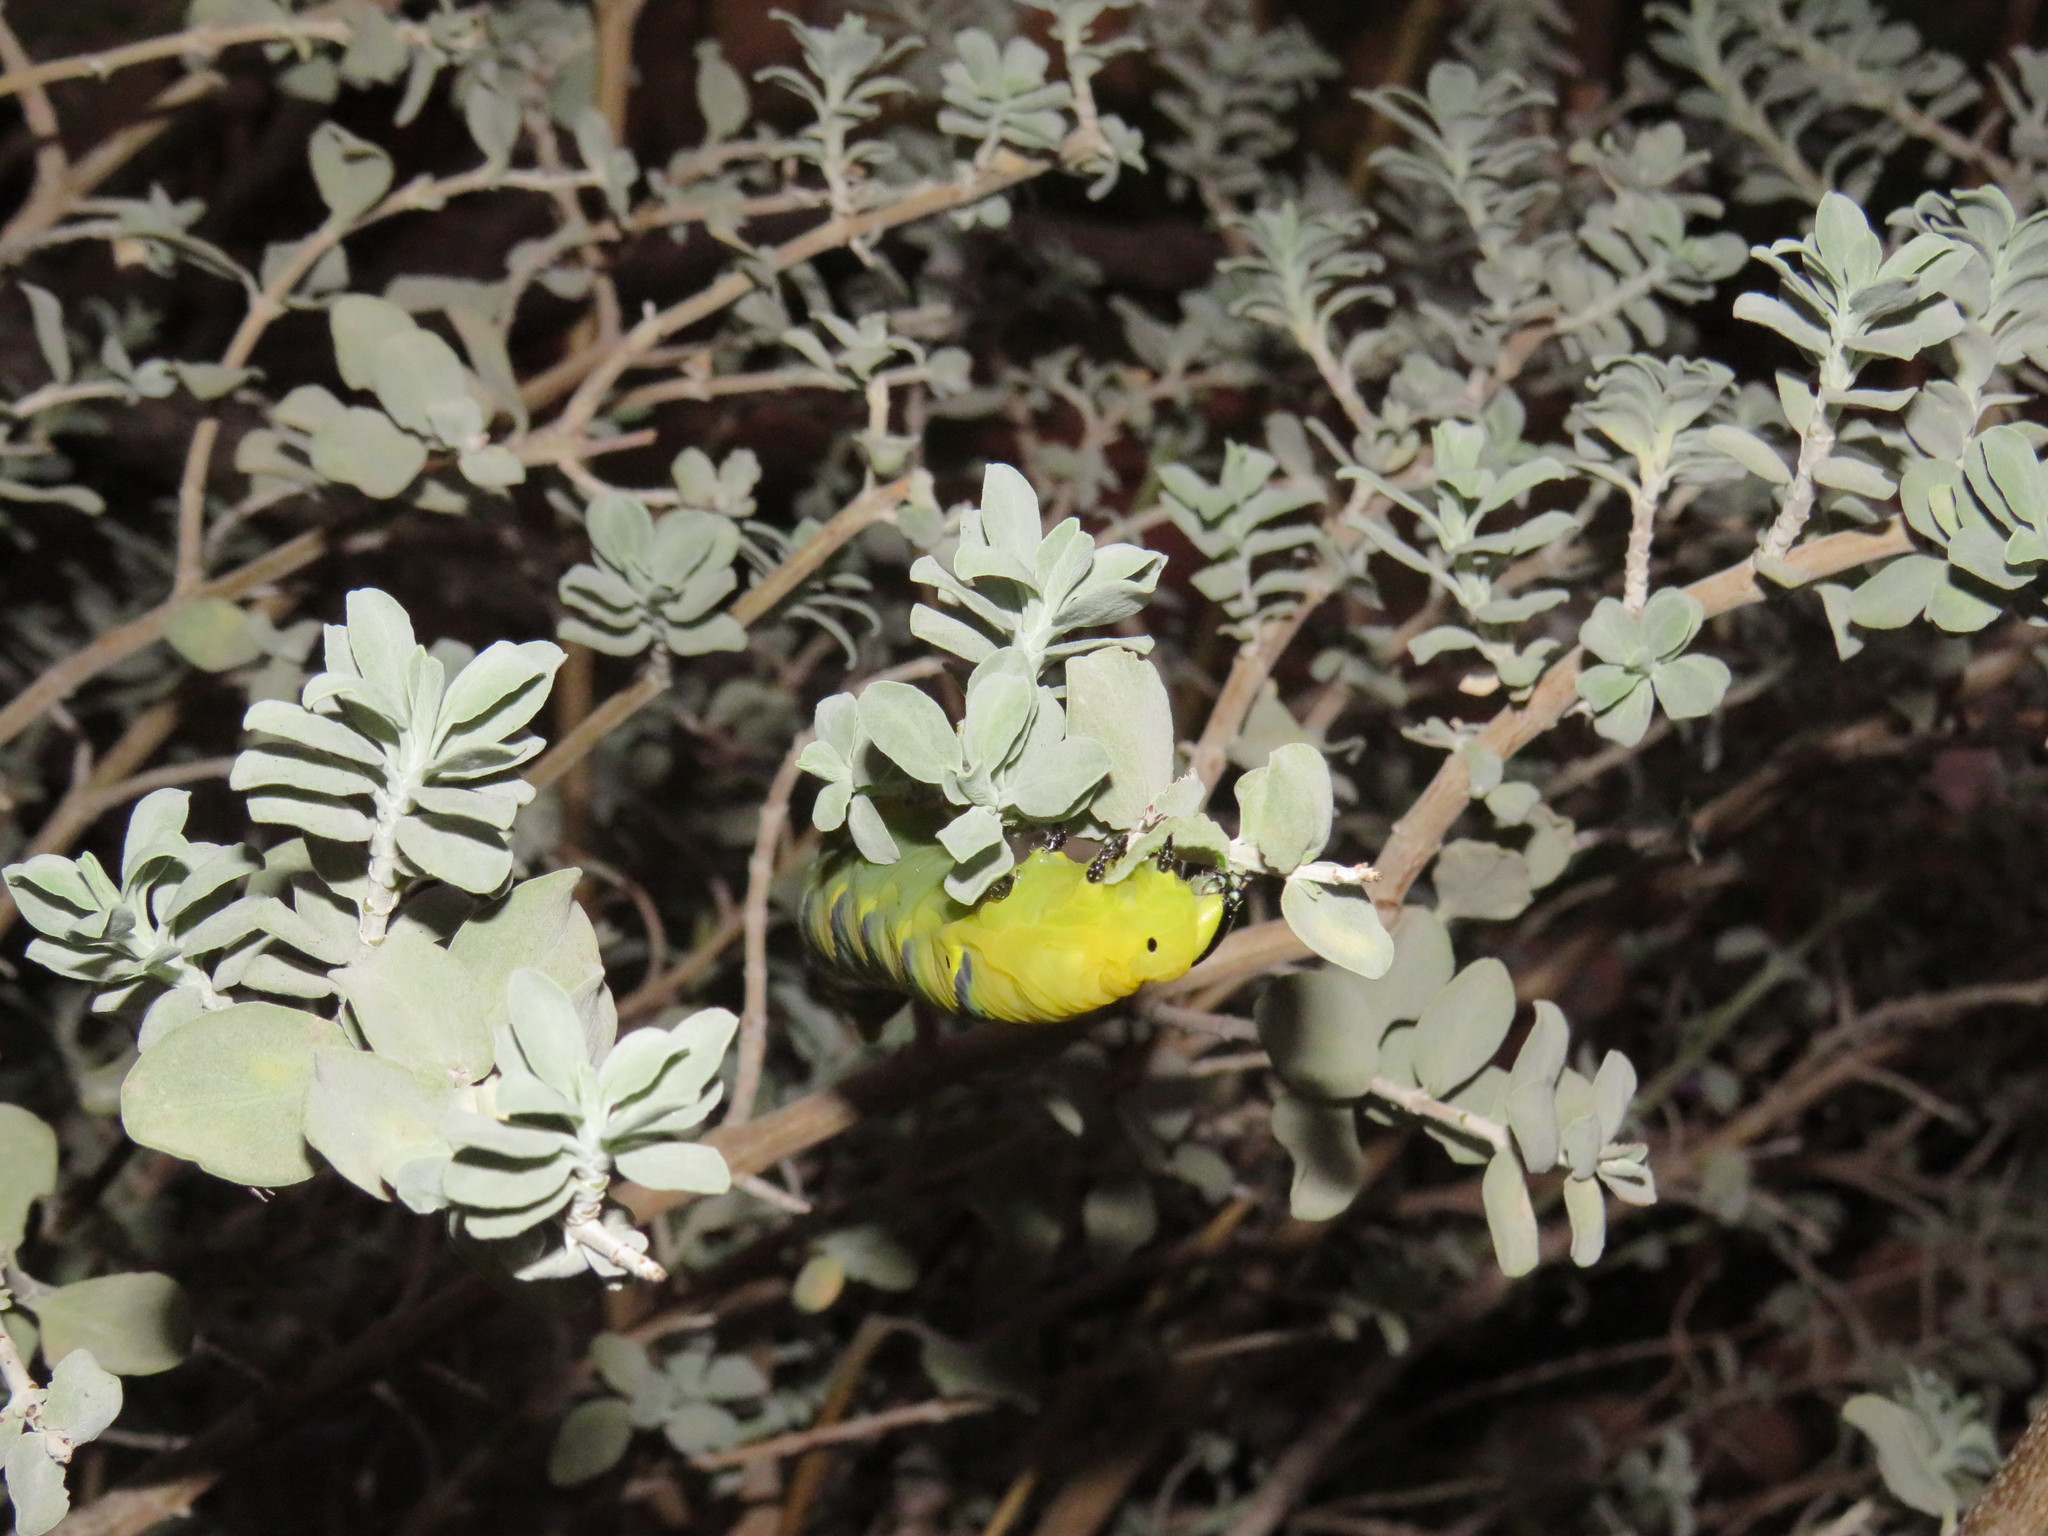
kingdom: Animalia
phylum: Arthropoda
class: Insecta
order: Lepidoptera
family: Sphingidae
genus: Acherontia
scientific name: Acherontia atropos
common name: Death's-head hawk moth
